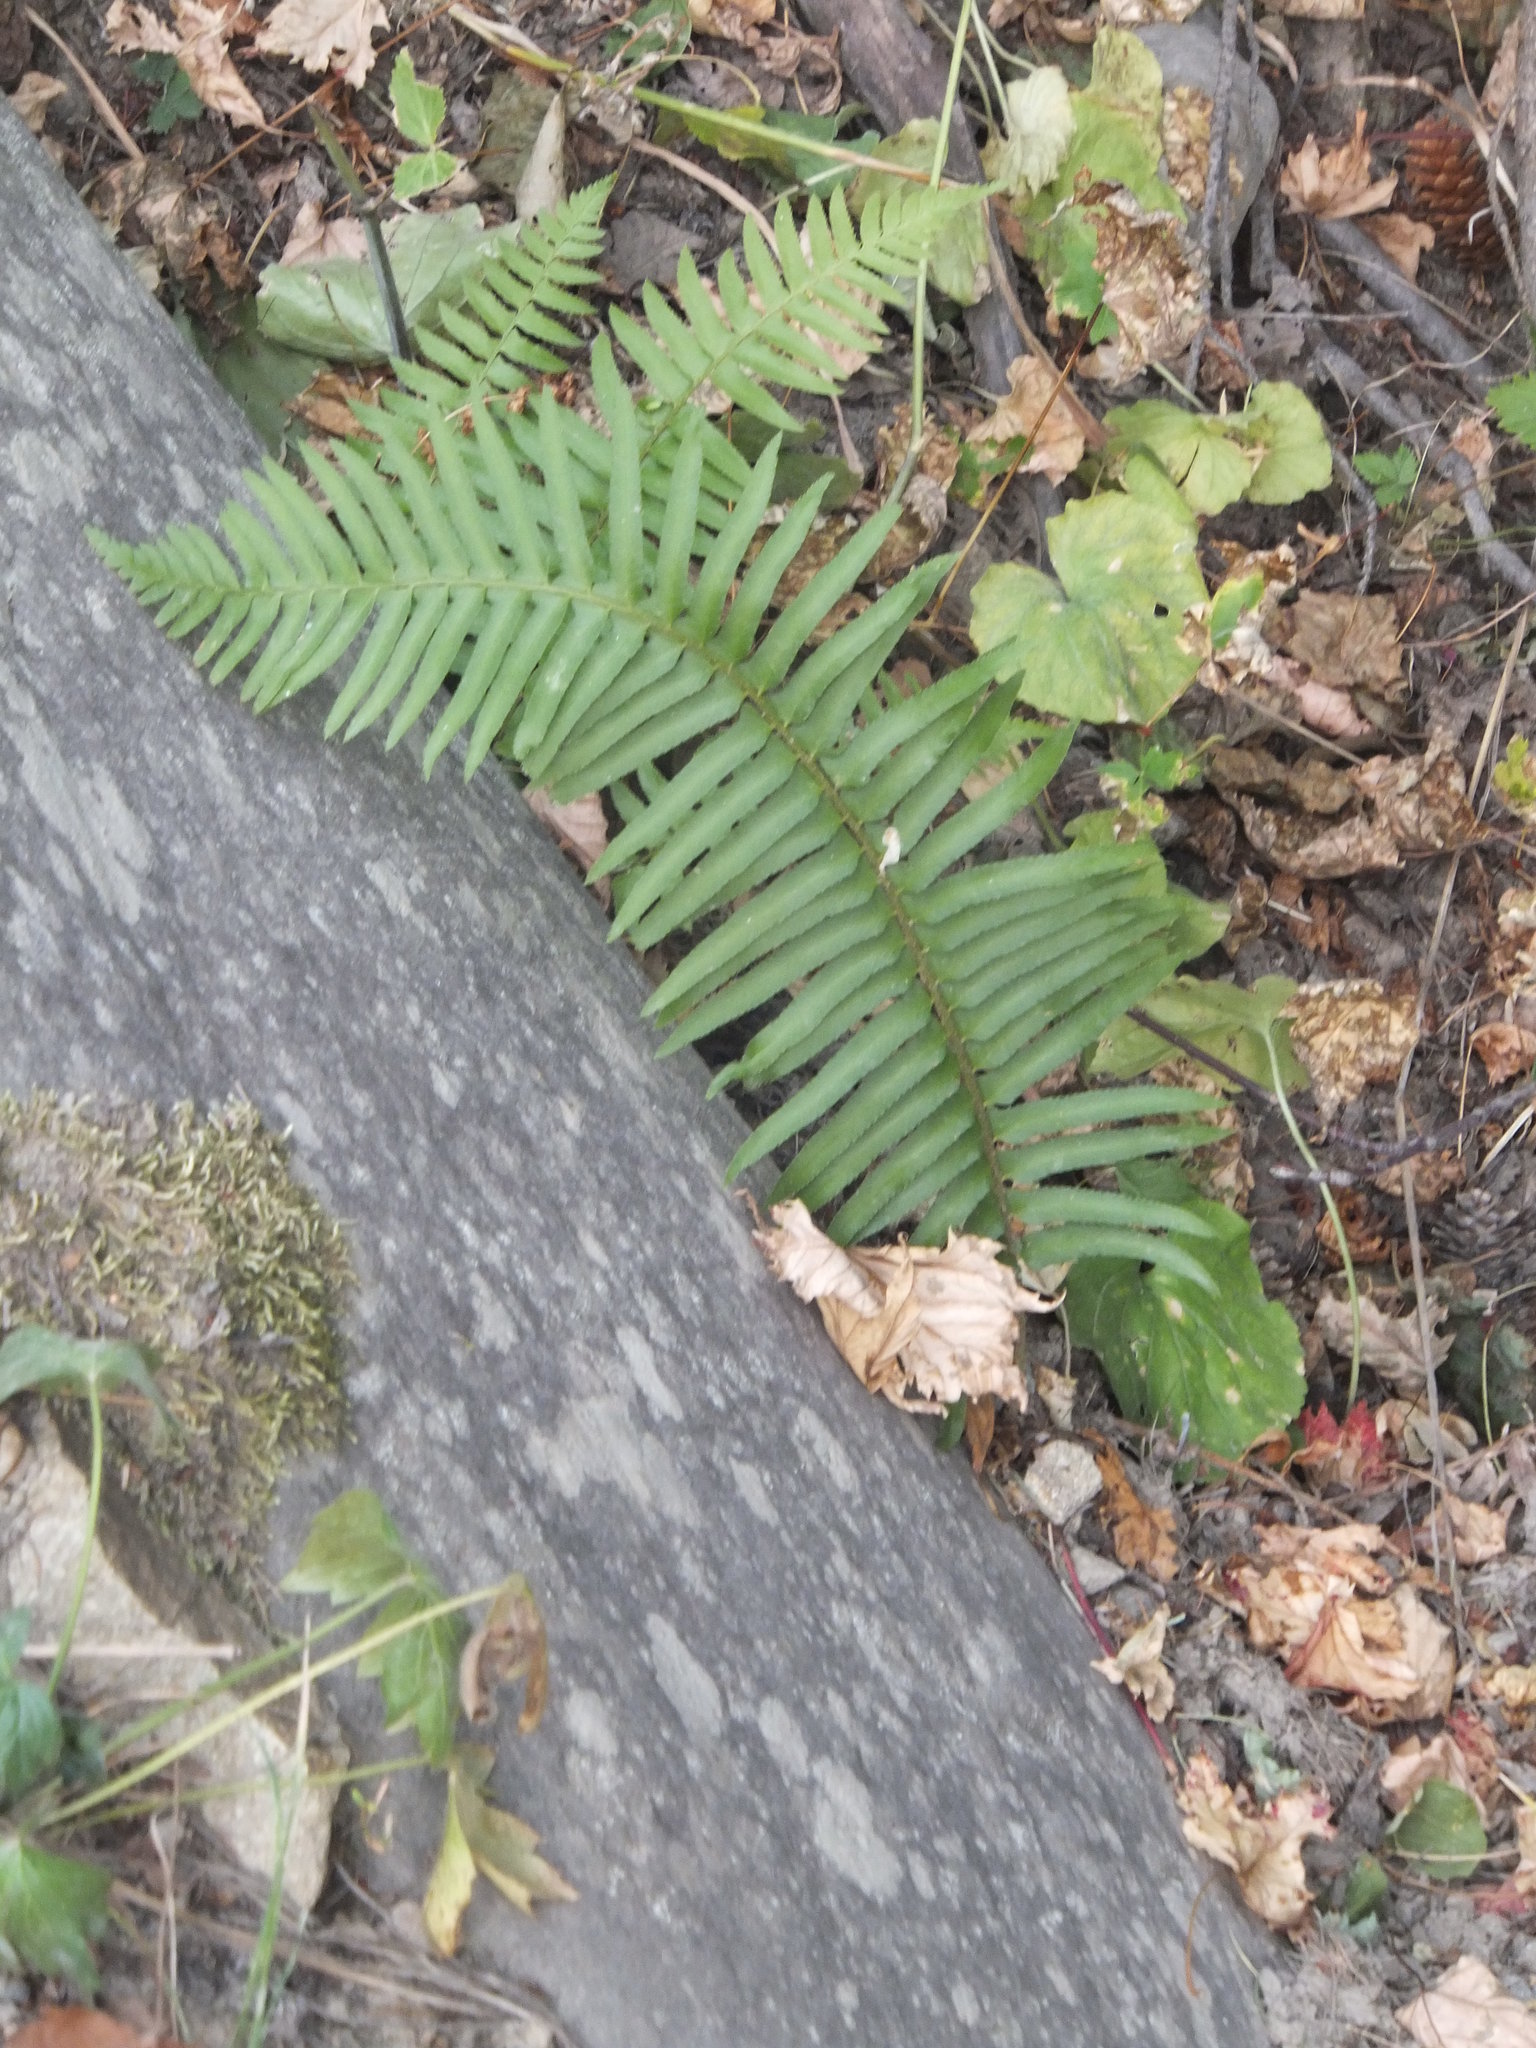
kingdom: Plantae
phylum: Tracheophyta
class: Polypodiopsida
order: Polypodiales
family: Dryopteridaceae
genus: Polystichum
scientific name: Polystichum munitum
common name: Western sword-fern
